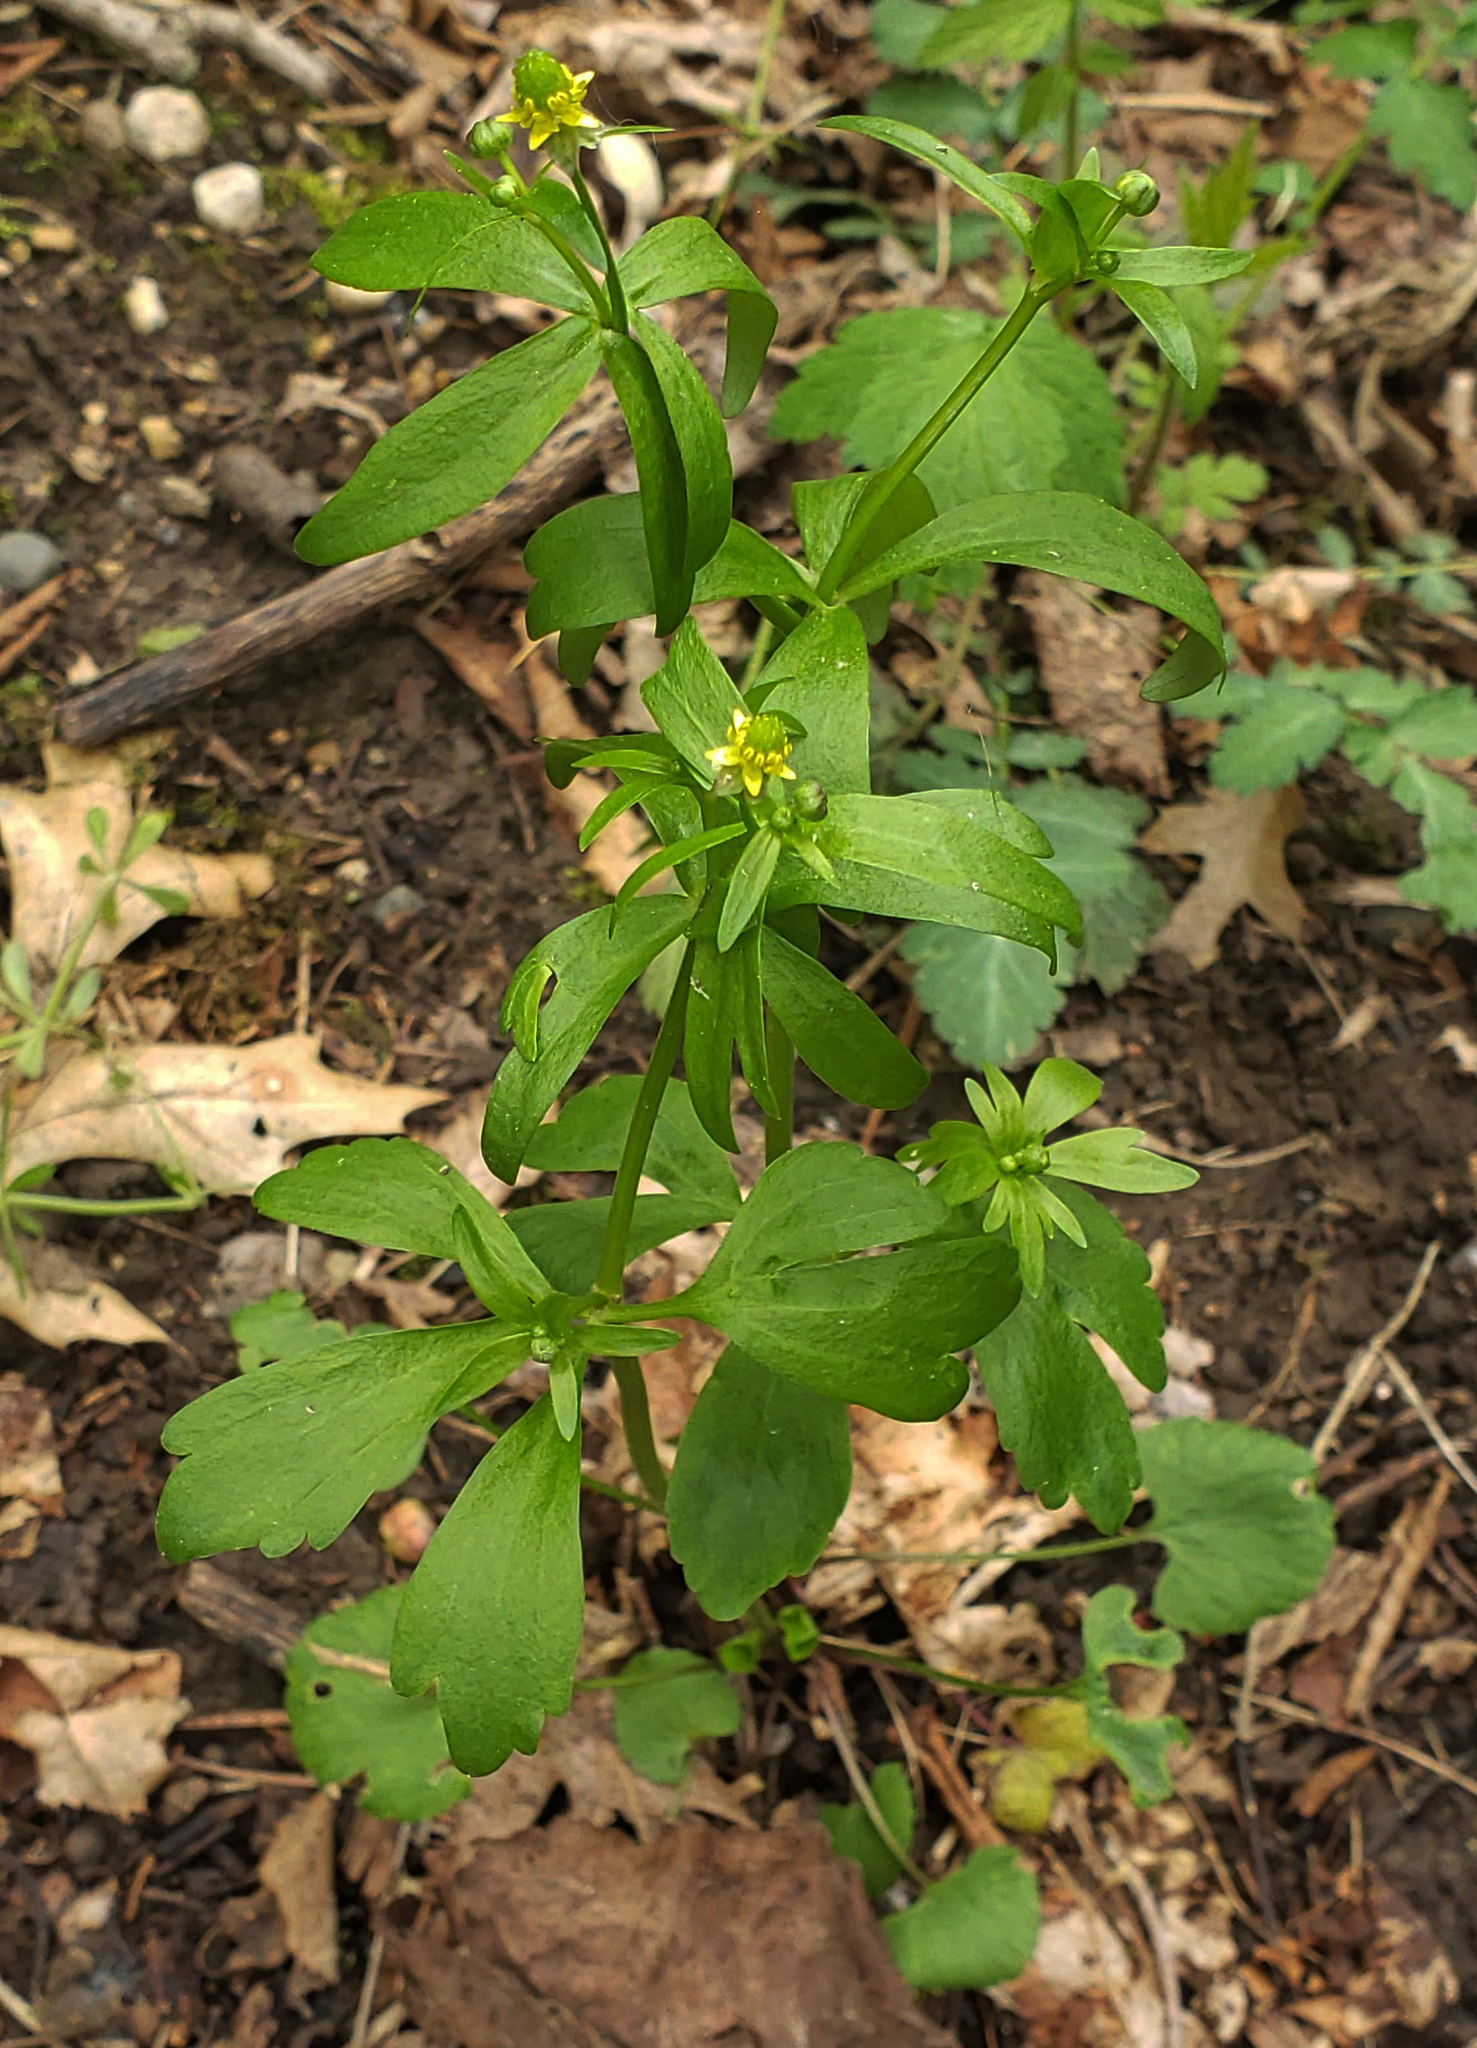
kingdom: Plantae
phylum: Tracheophyta
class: Magnoliopsida
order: Ranunculales
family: Ranunculaceae
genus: Ranunculus
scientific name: Ranunculus abortivus
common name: Early wood buttercup
